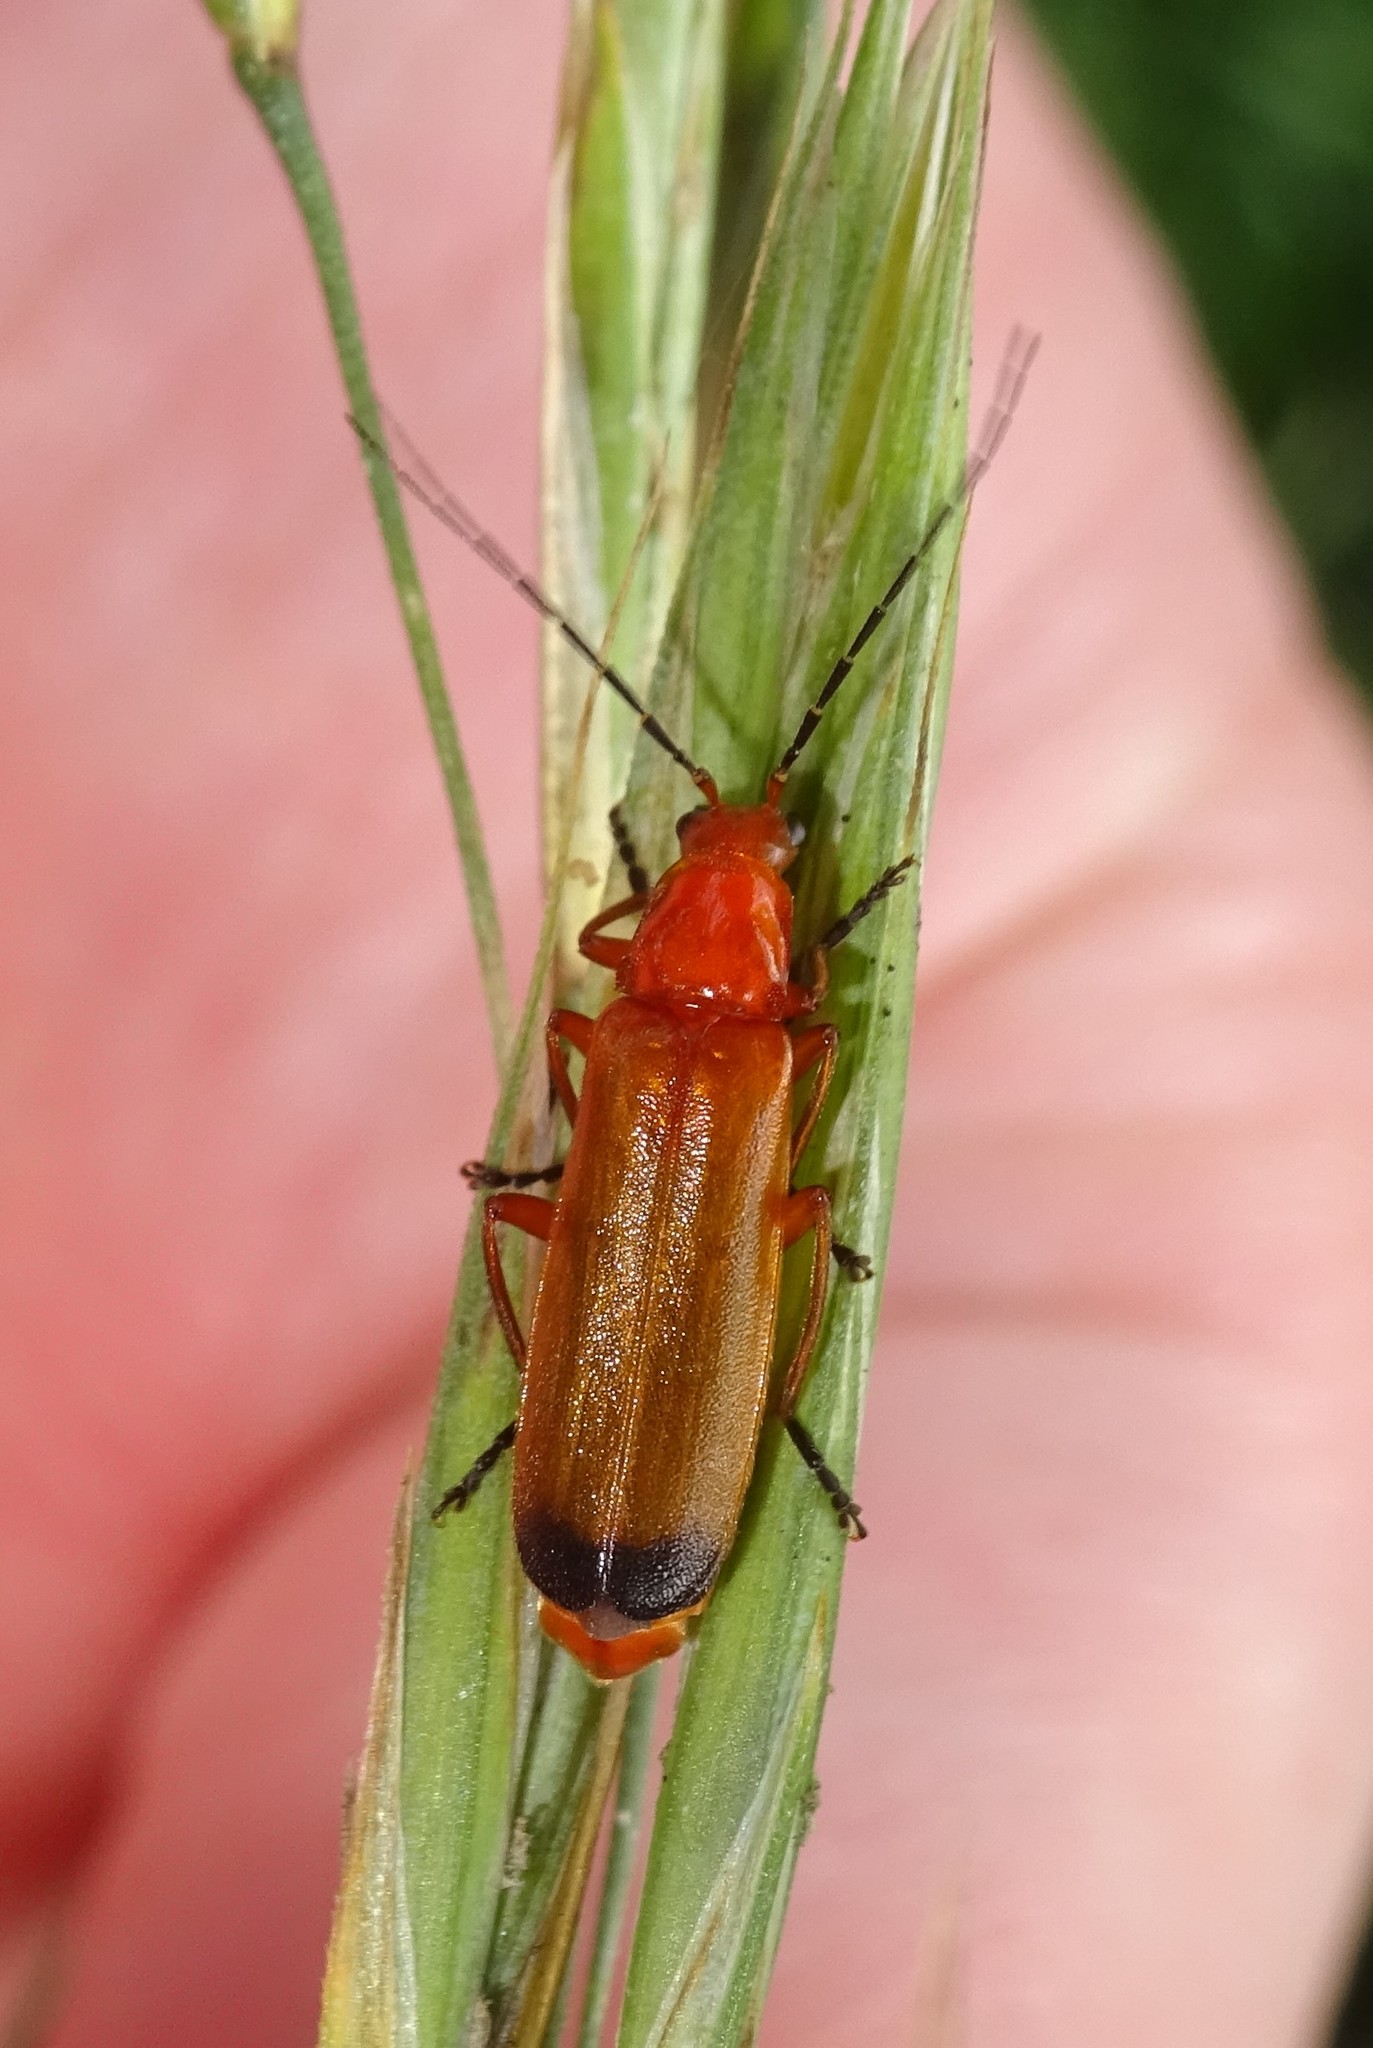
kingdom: Animalia
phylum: Arthropoda
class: Insecta
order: Coleoptera
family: Cantharidae
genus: Rhagonycha
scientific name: Rhagonycha fulva
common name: Common red soldier beetle
